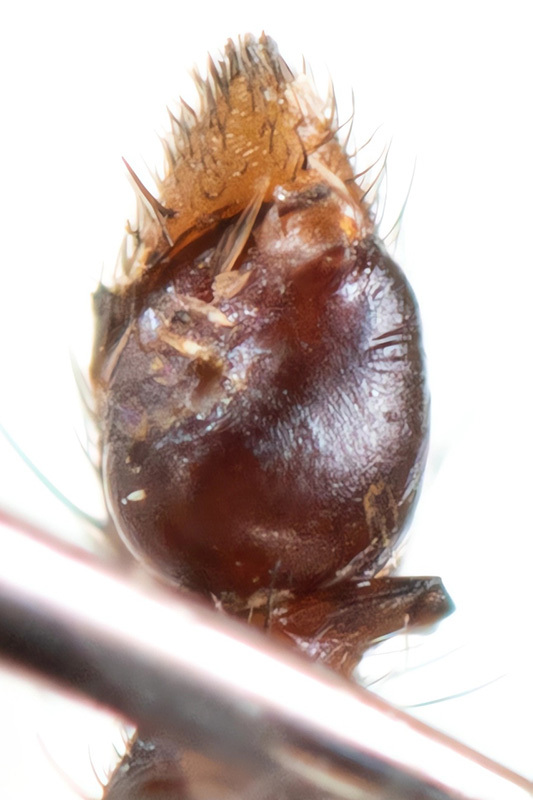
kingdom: Animalia
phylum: Arthropoda
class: Arachnida
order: Araneae
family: Philodromidae
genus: Thanatus
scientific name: Thanatus imbecillus
